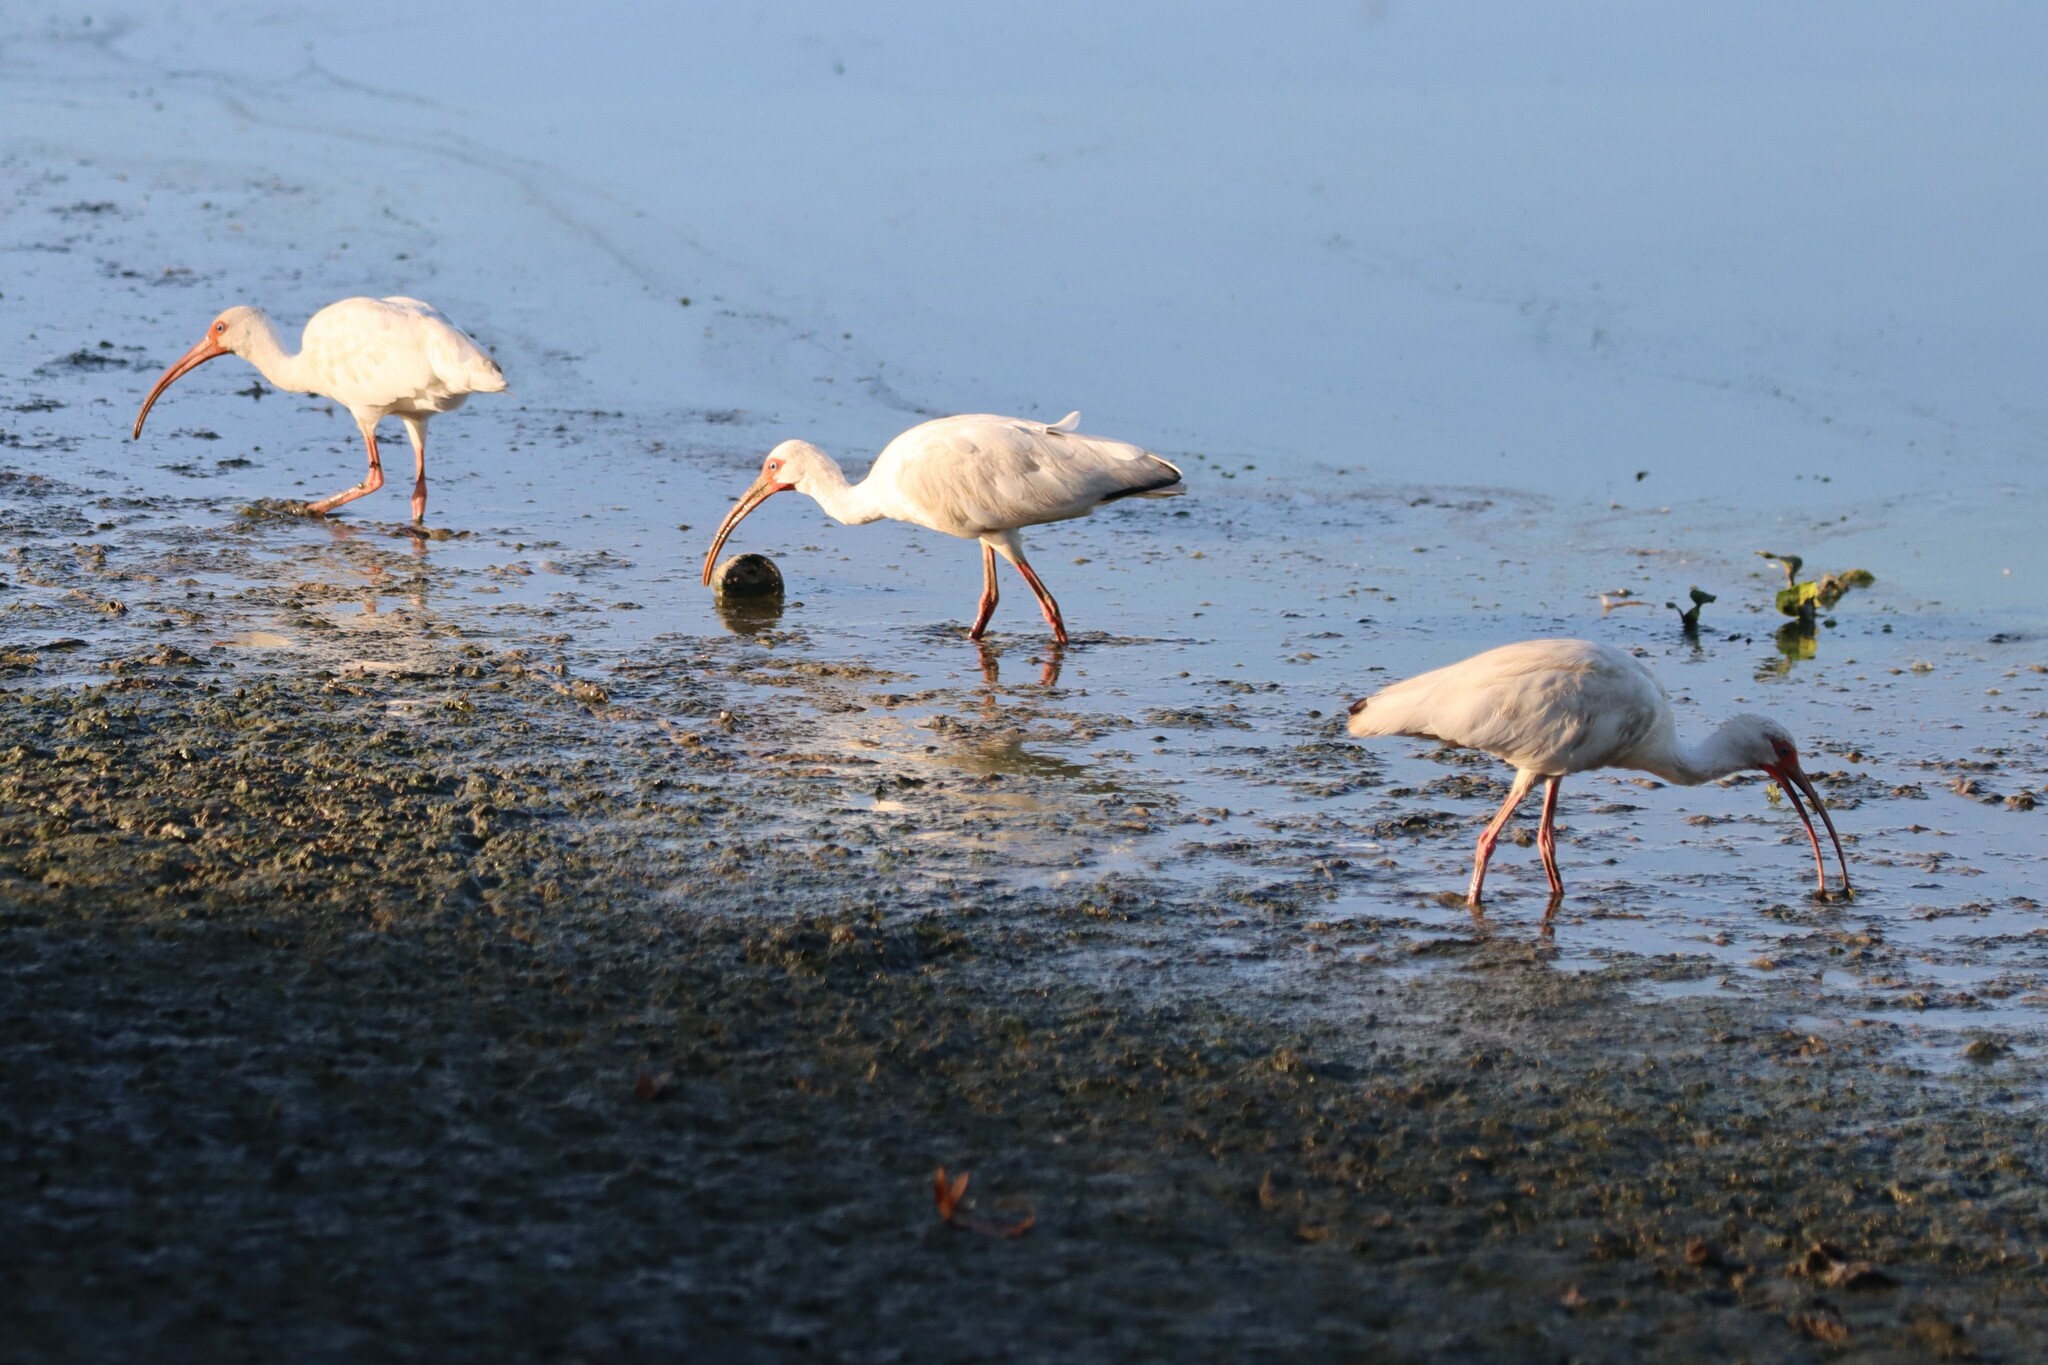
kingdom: Animalia
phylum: Chordata
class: Aves
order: Pelecaniformes
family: Threskiornithidae
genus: Eudocimus
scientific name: Eudocimus albus
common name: White ibis
